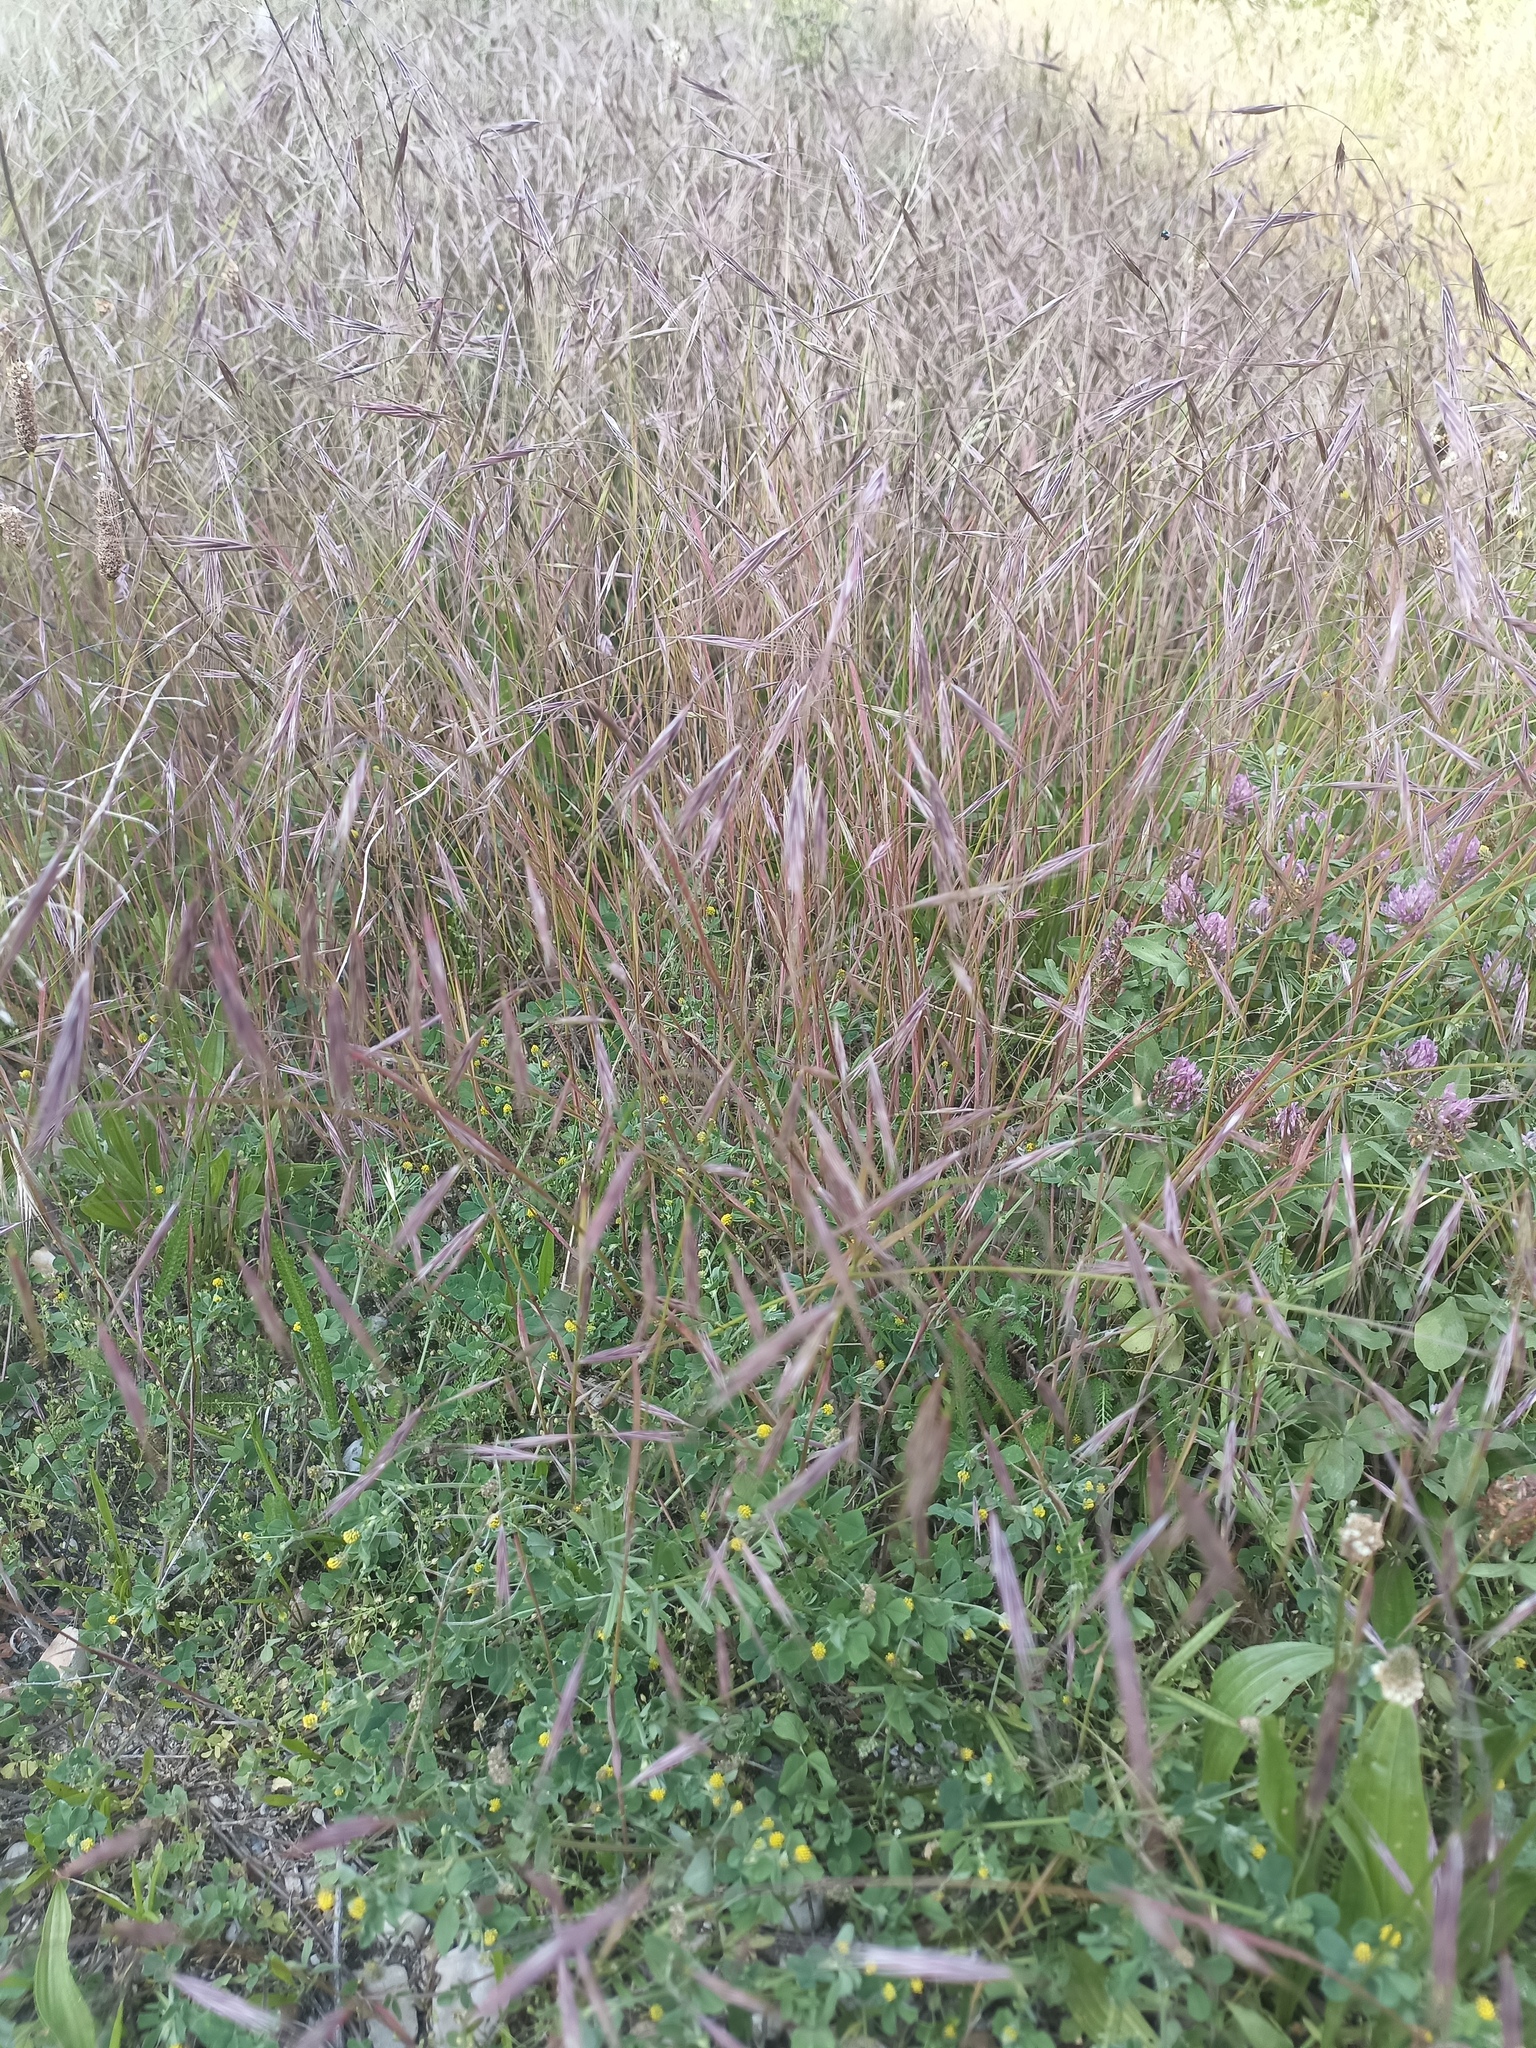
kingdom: Plantae
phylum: Tracheophyta
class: Liliopsida
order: Poales
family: Poaceae
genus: Bromus
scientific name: Bromus sterilis
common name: Poverty brome
